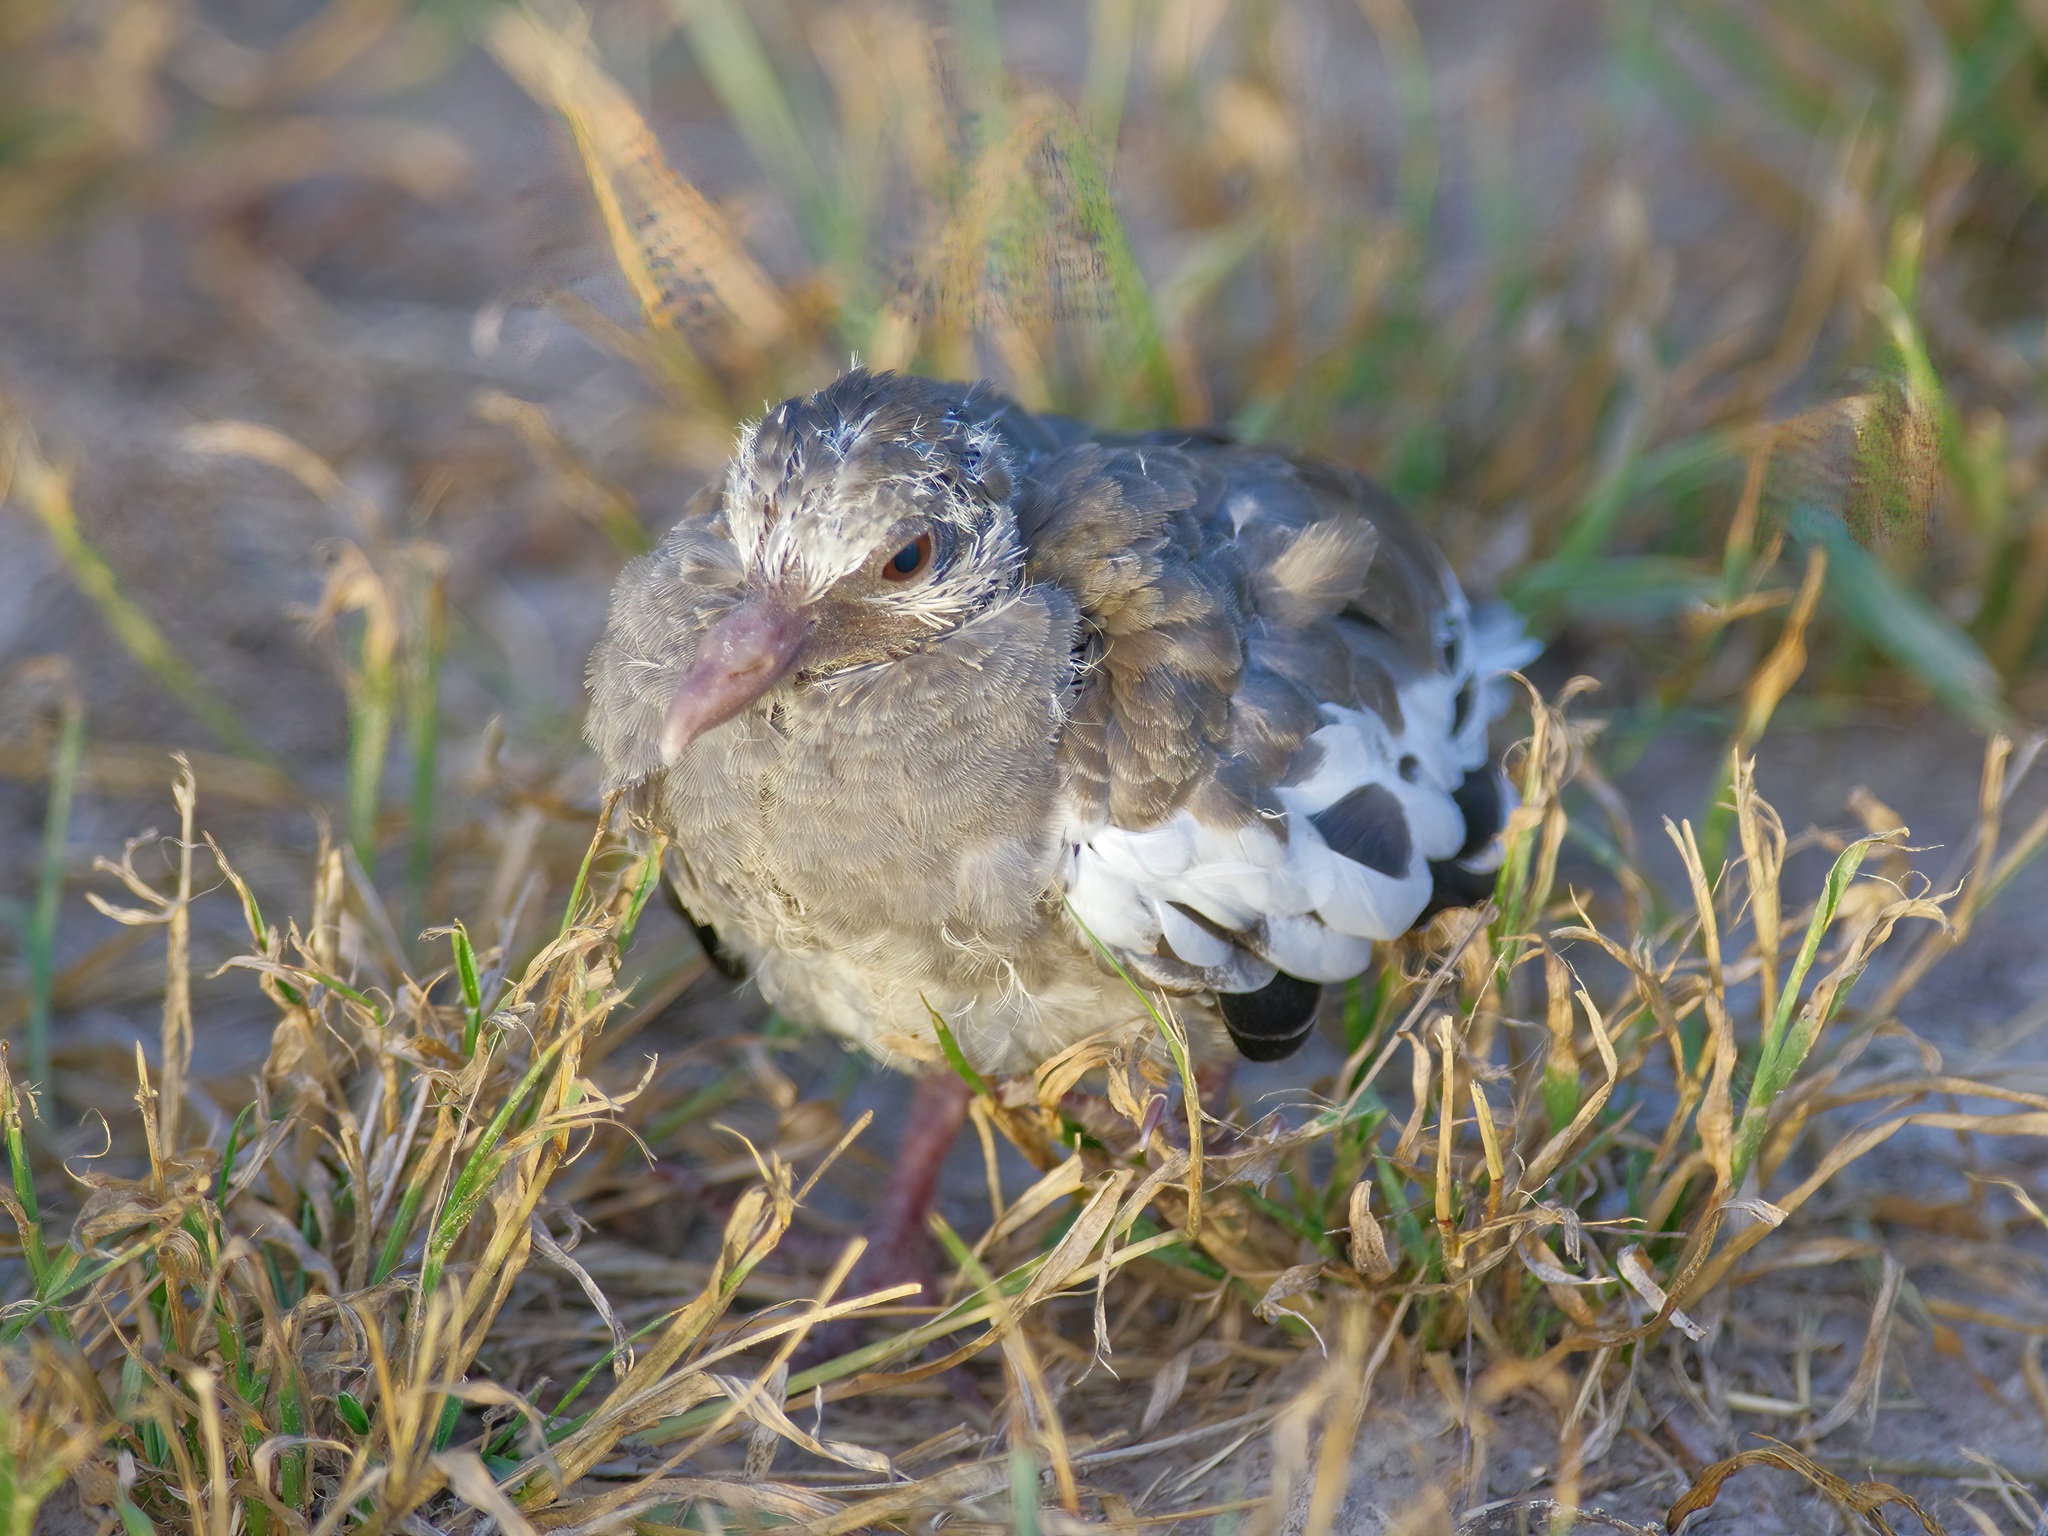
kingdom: Animalia
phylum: Chordata
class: Aves
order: Columbiformes
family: Columbidae
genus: Zenaida
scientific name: Zenaida asiatica
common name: White-winged dove
